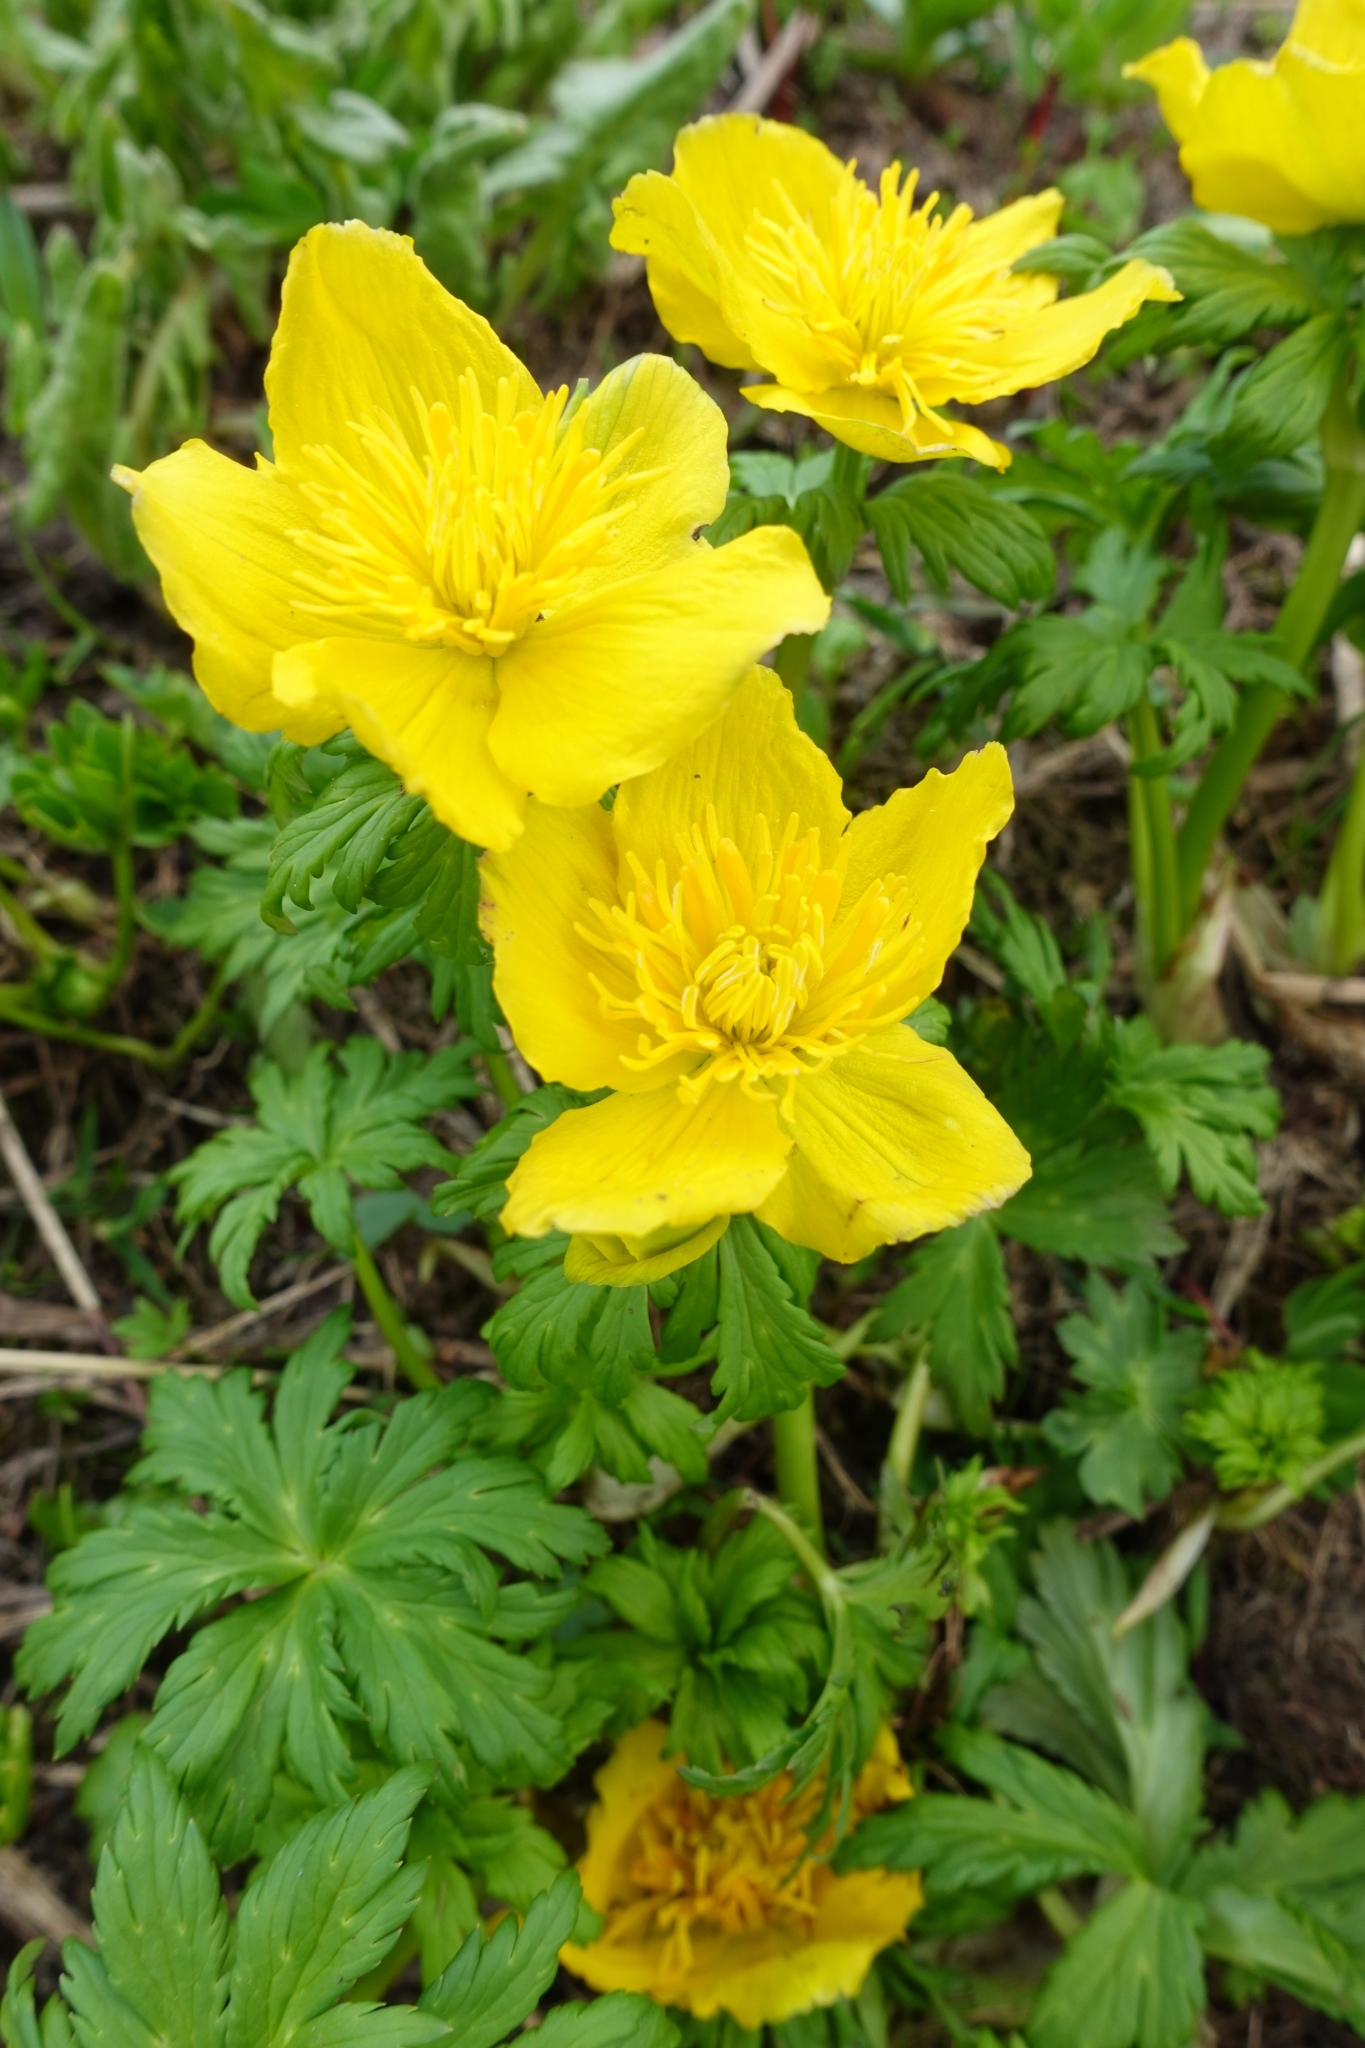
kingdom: Plantae
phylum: Tracheophyta
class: Magnoliopsida
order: Ranunculales
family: Ranunculaceae
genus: Trollius
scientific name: Trollius ranunculinus
